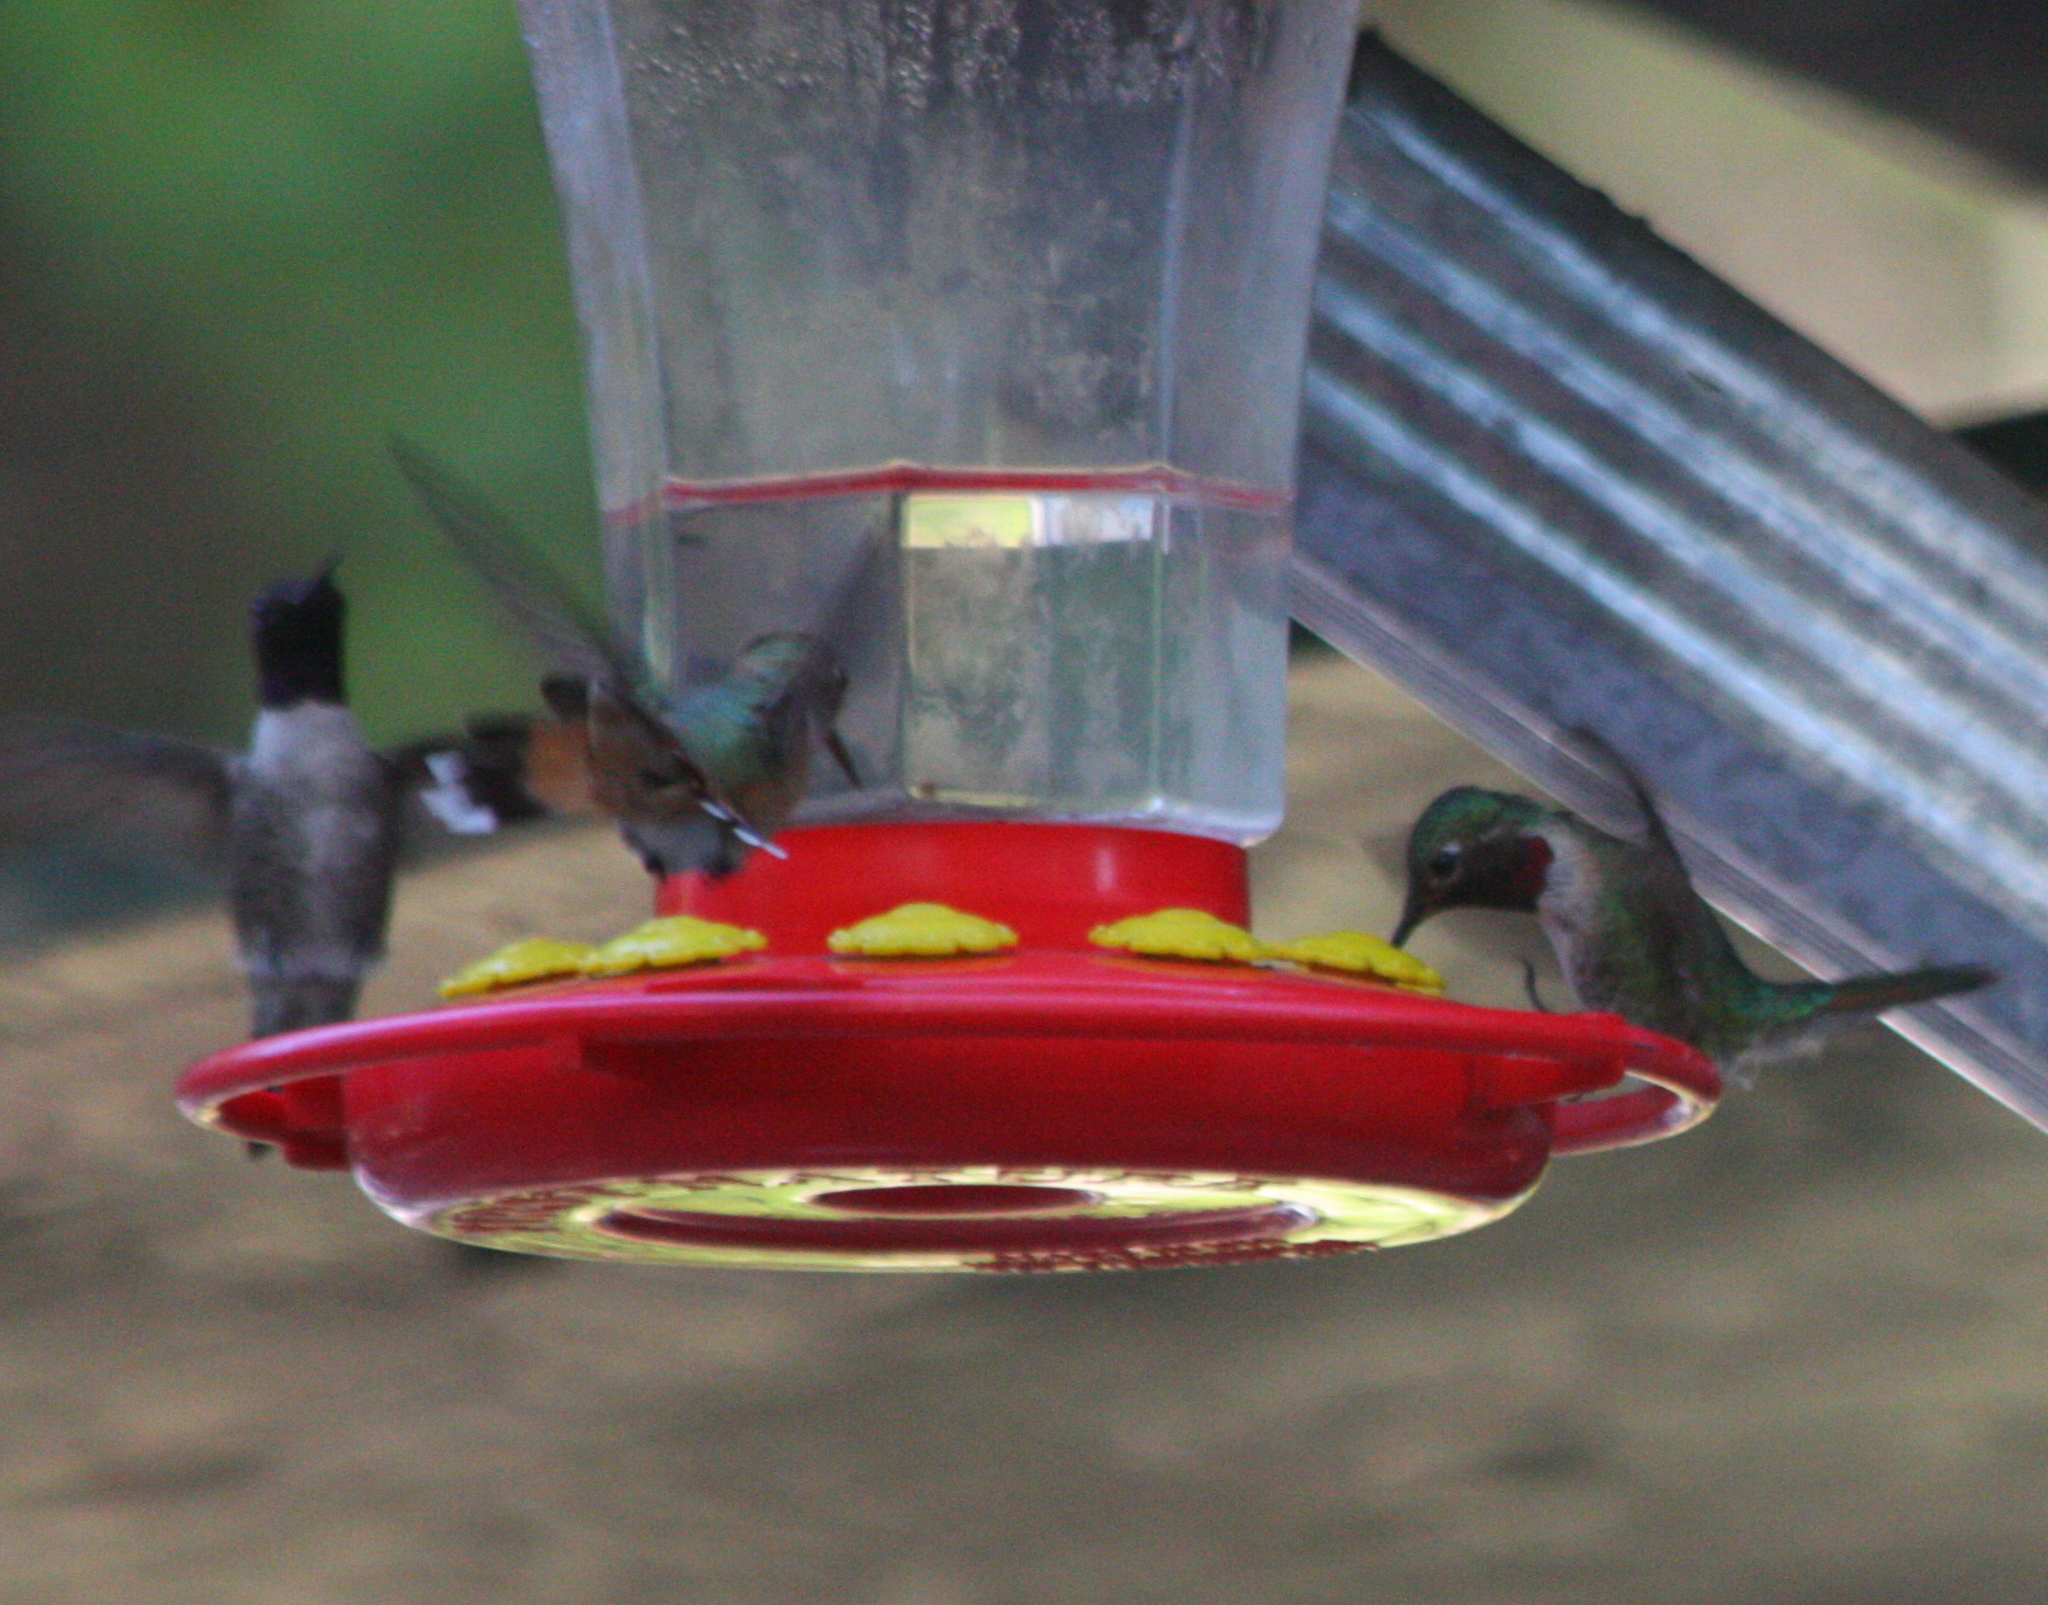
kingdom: Animalia
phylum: Chordata
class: Aves
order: Apodiformes
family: Trochilidae
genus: Selasphorus
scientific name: Selasphorus platycercus
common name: Broad-tailed hummingbird
